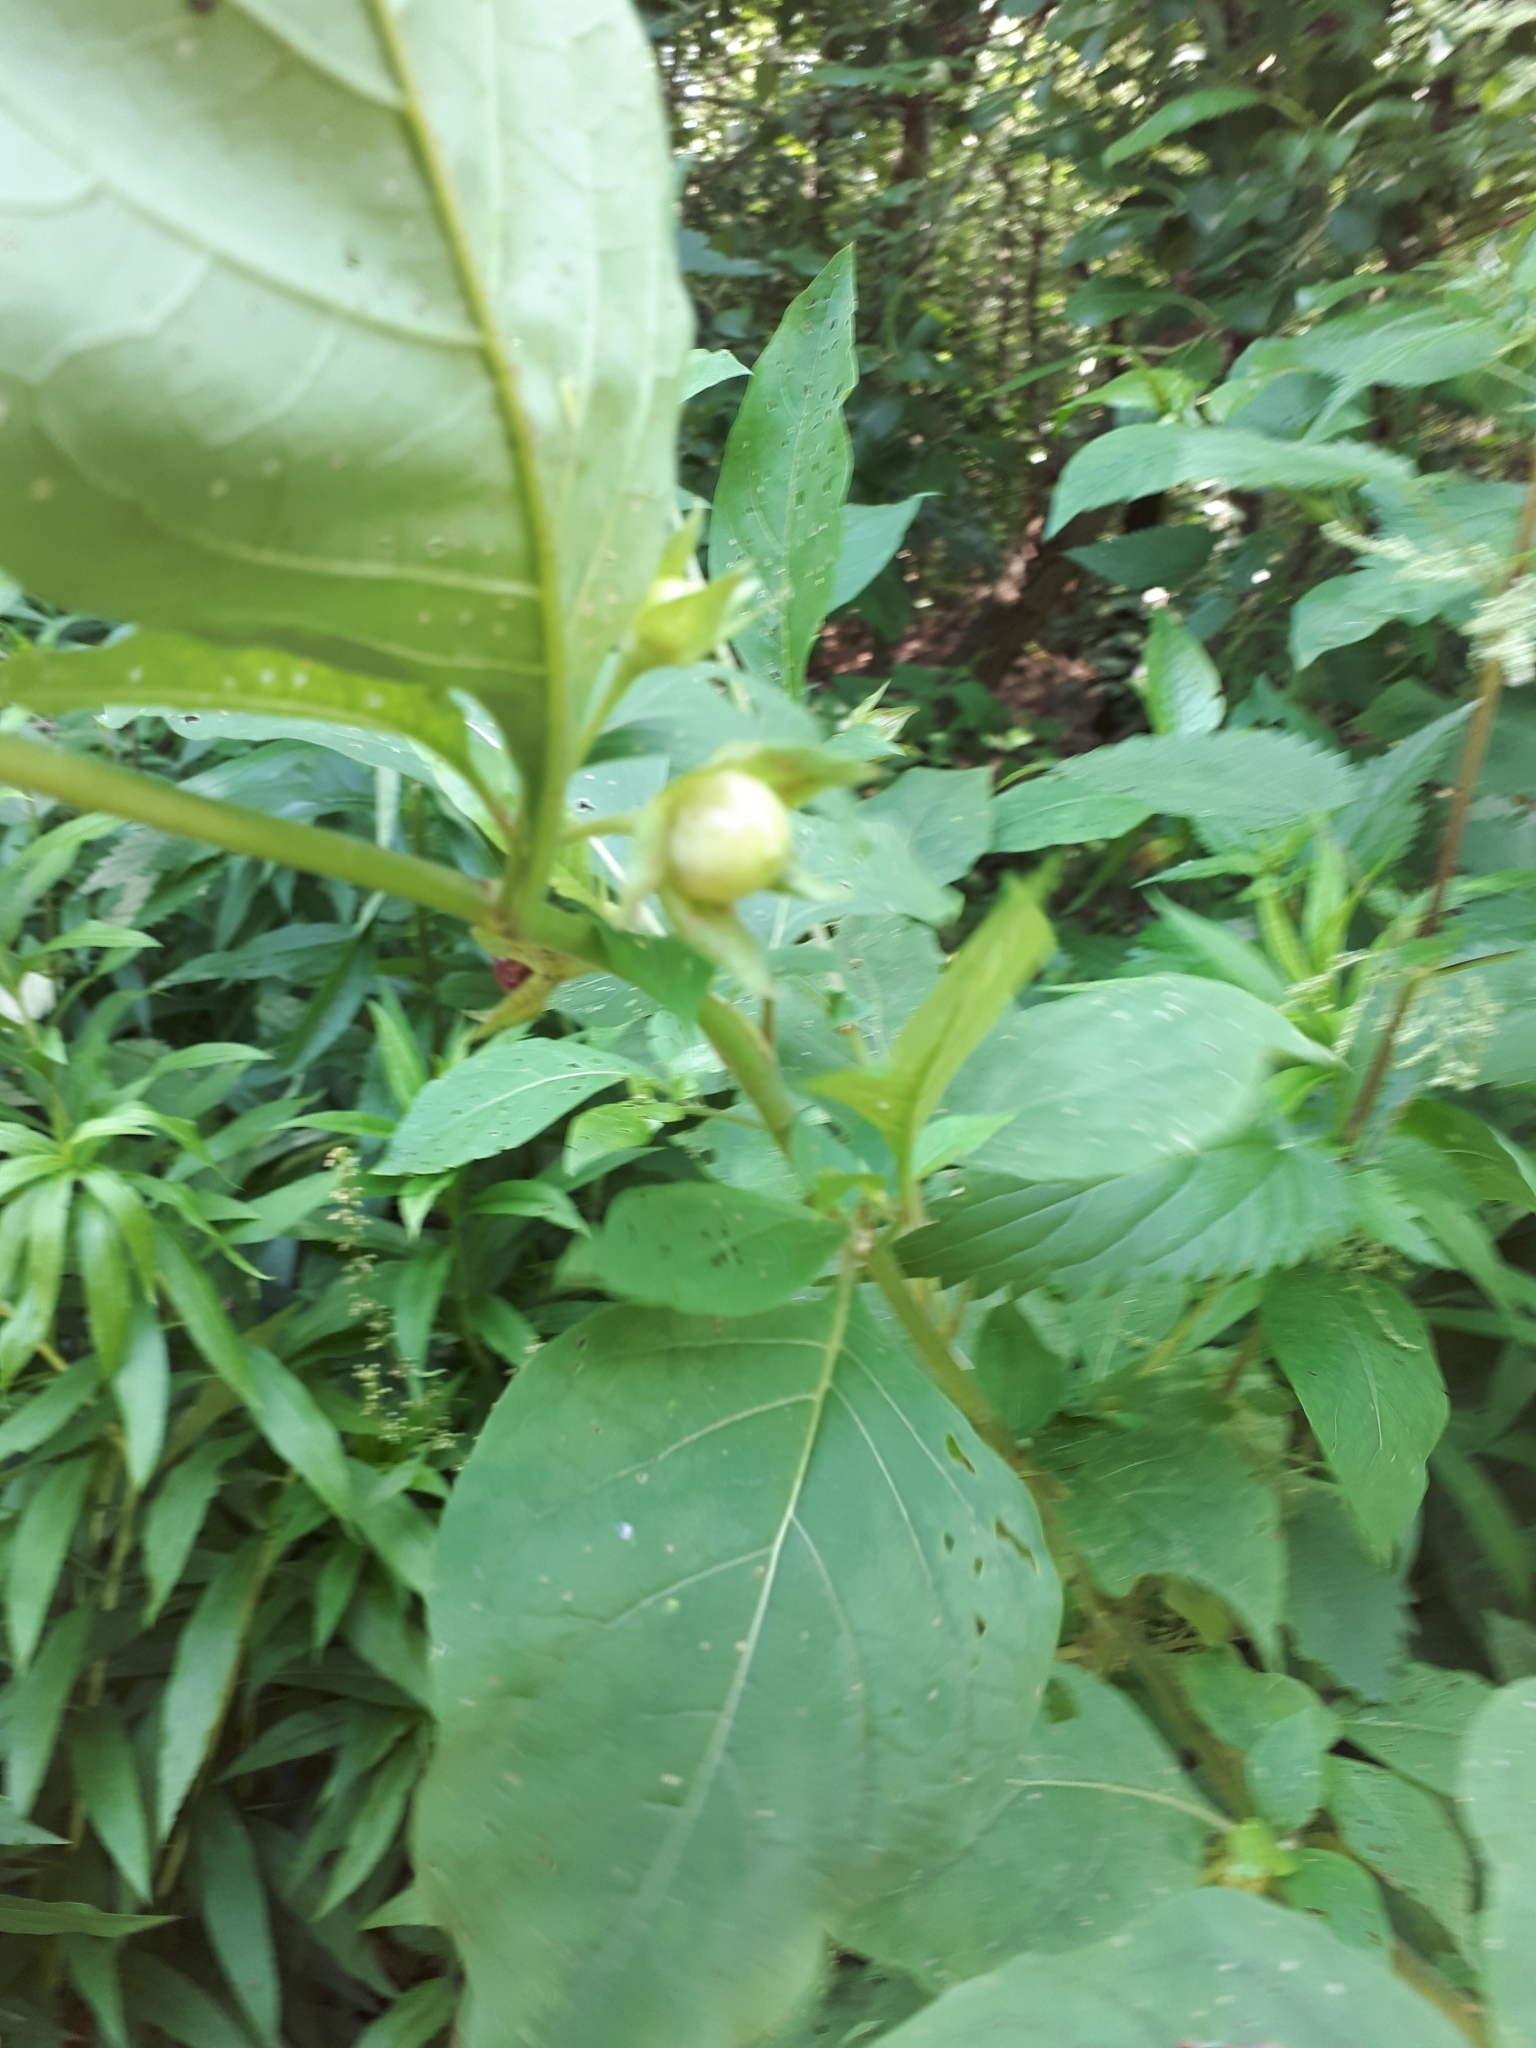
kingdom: Plantae
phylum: Tracheophyta
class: Magnoliopsida
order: Solanales
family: Solanaceae
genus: Atropa
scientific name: Atropa belladonna
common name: Deadly nightshade
